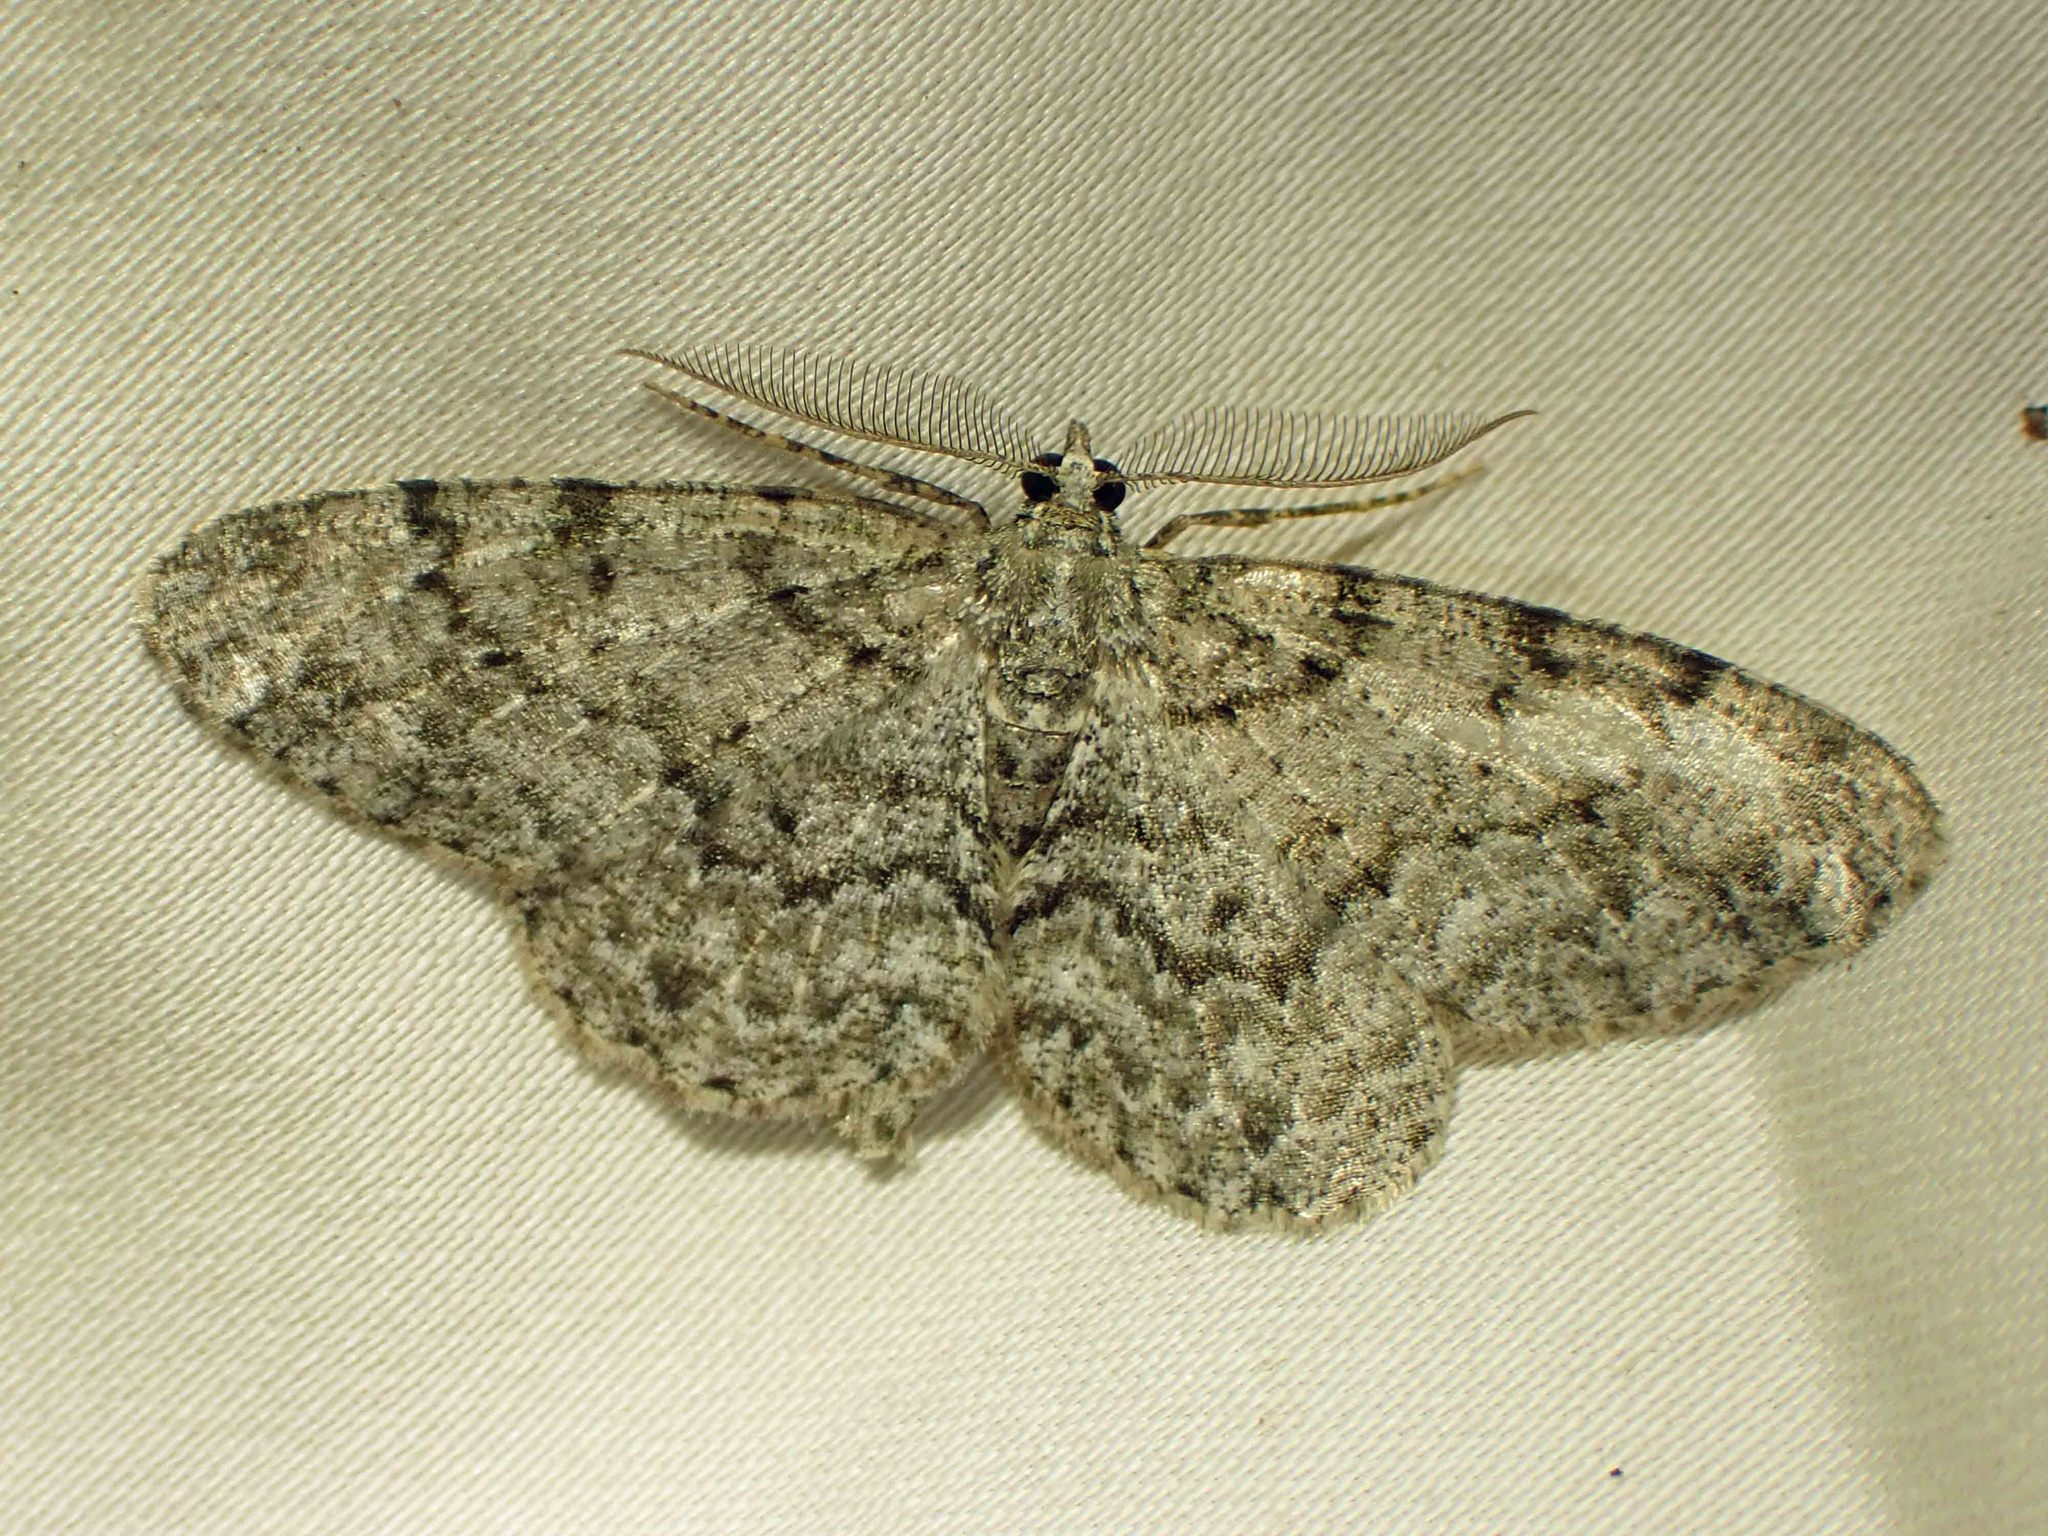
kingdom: Animalia
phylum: Arthropoda
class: Insecta
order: Lepidoptera
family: Geometridae
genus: Protoboarmia
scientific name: Protoboarmia porcelaria
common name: Porcelain gray
